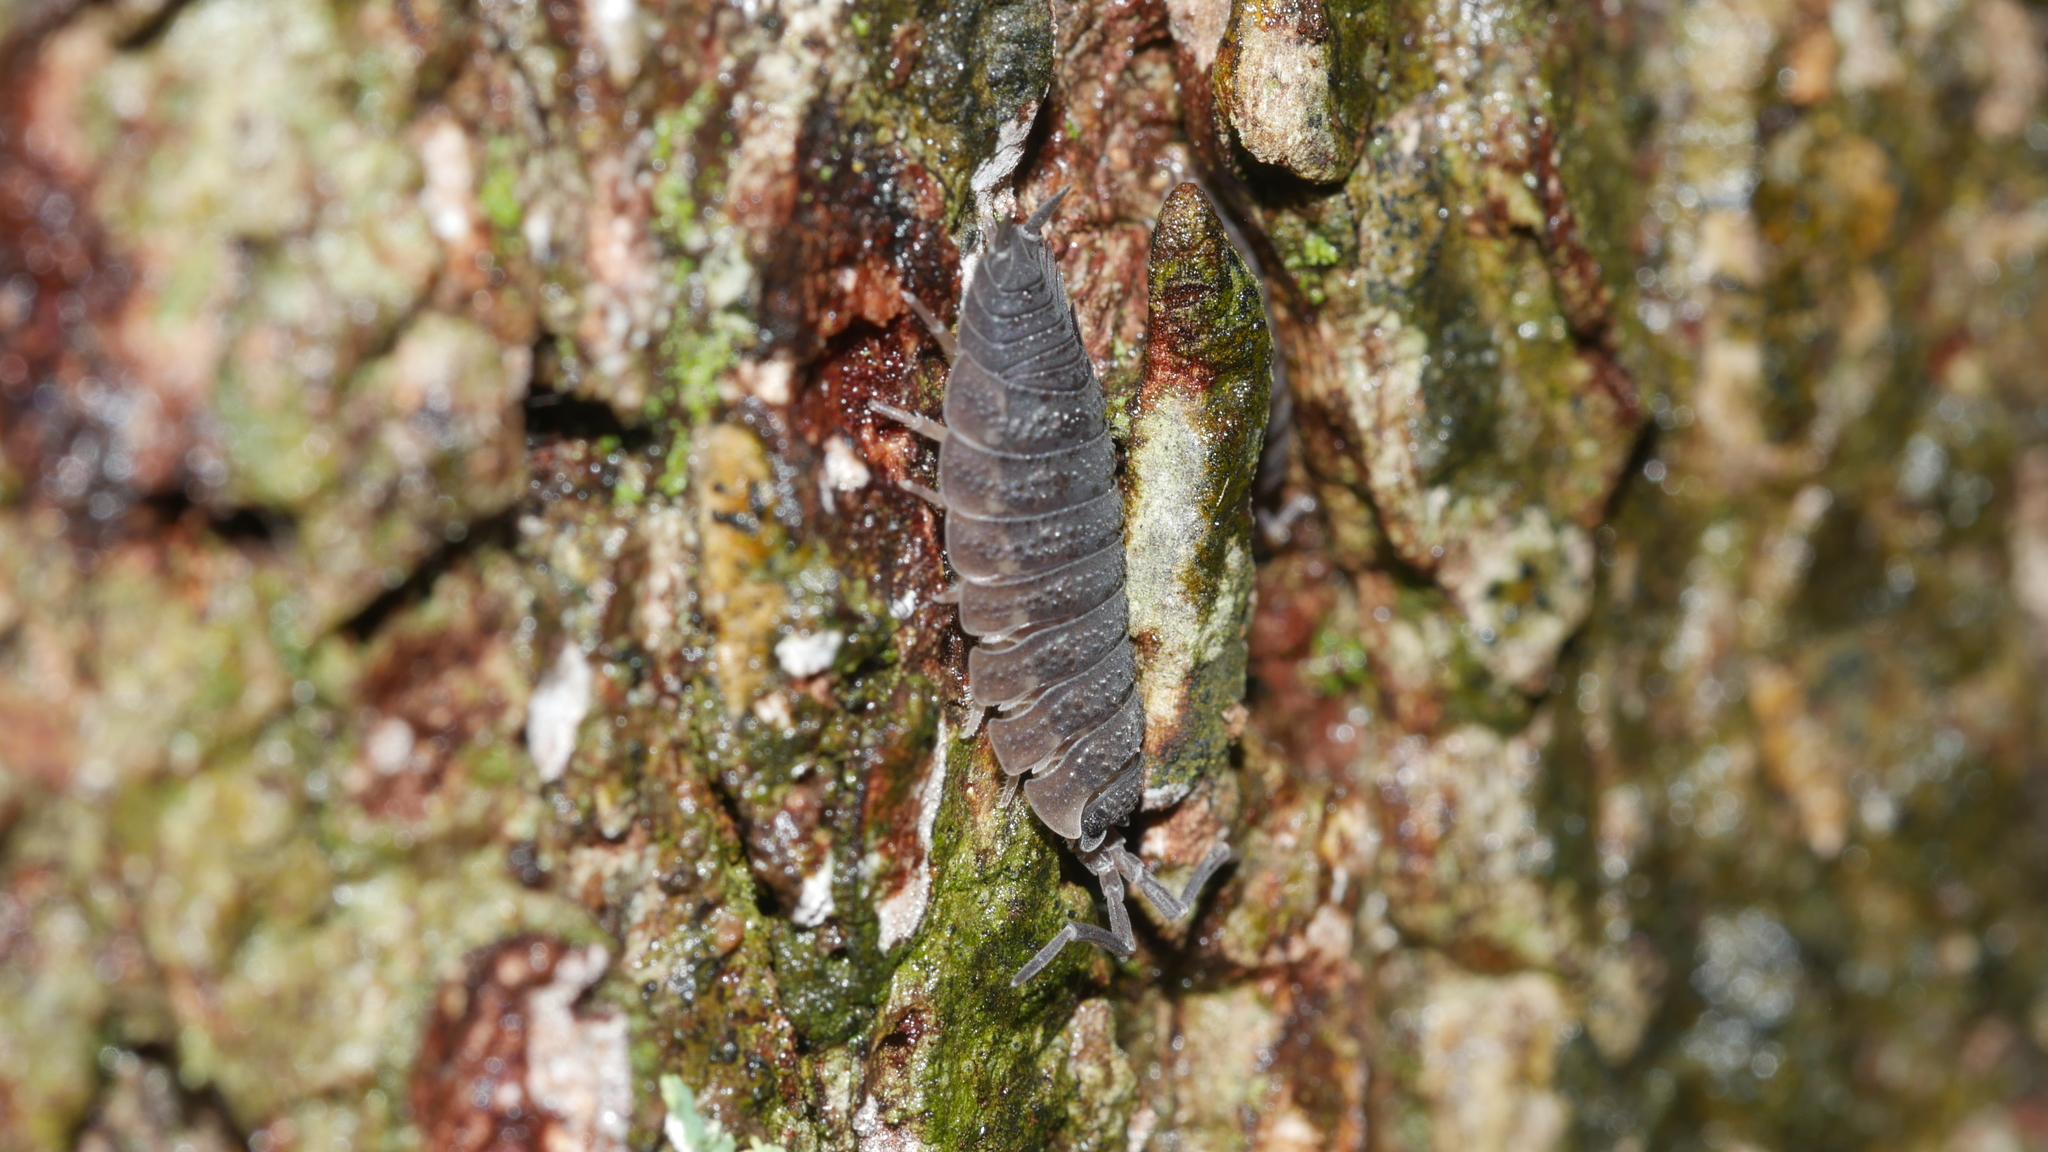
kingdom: Animalia
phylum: Arthropoda
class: Malacostraca
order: Isopoda
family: Porcellionidae
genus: Porcellio
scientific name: Porcellio scaber
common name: Common rough woodlouse
